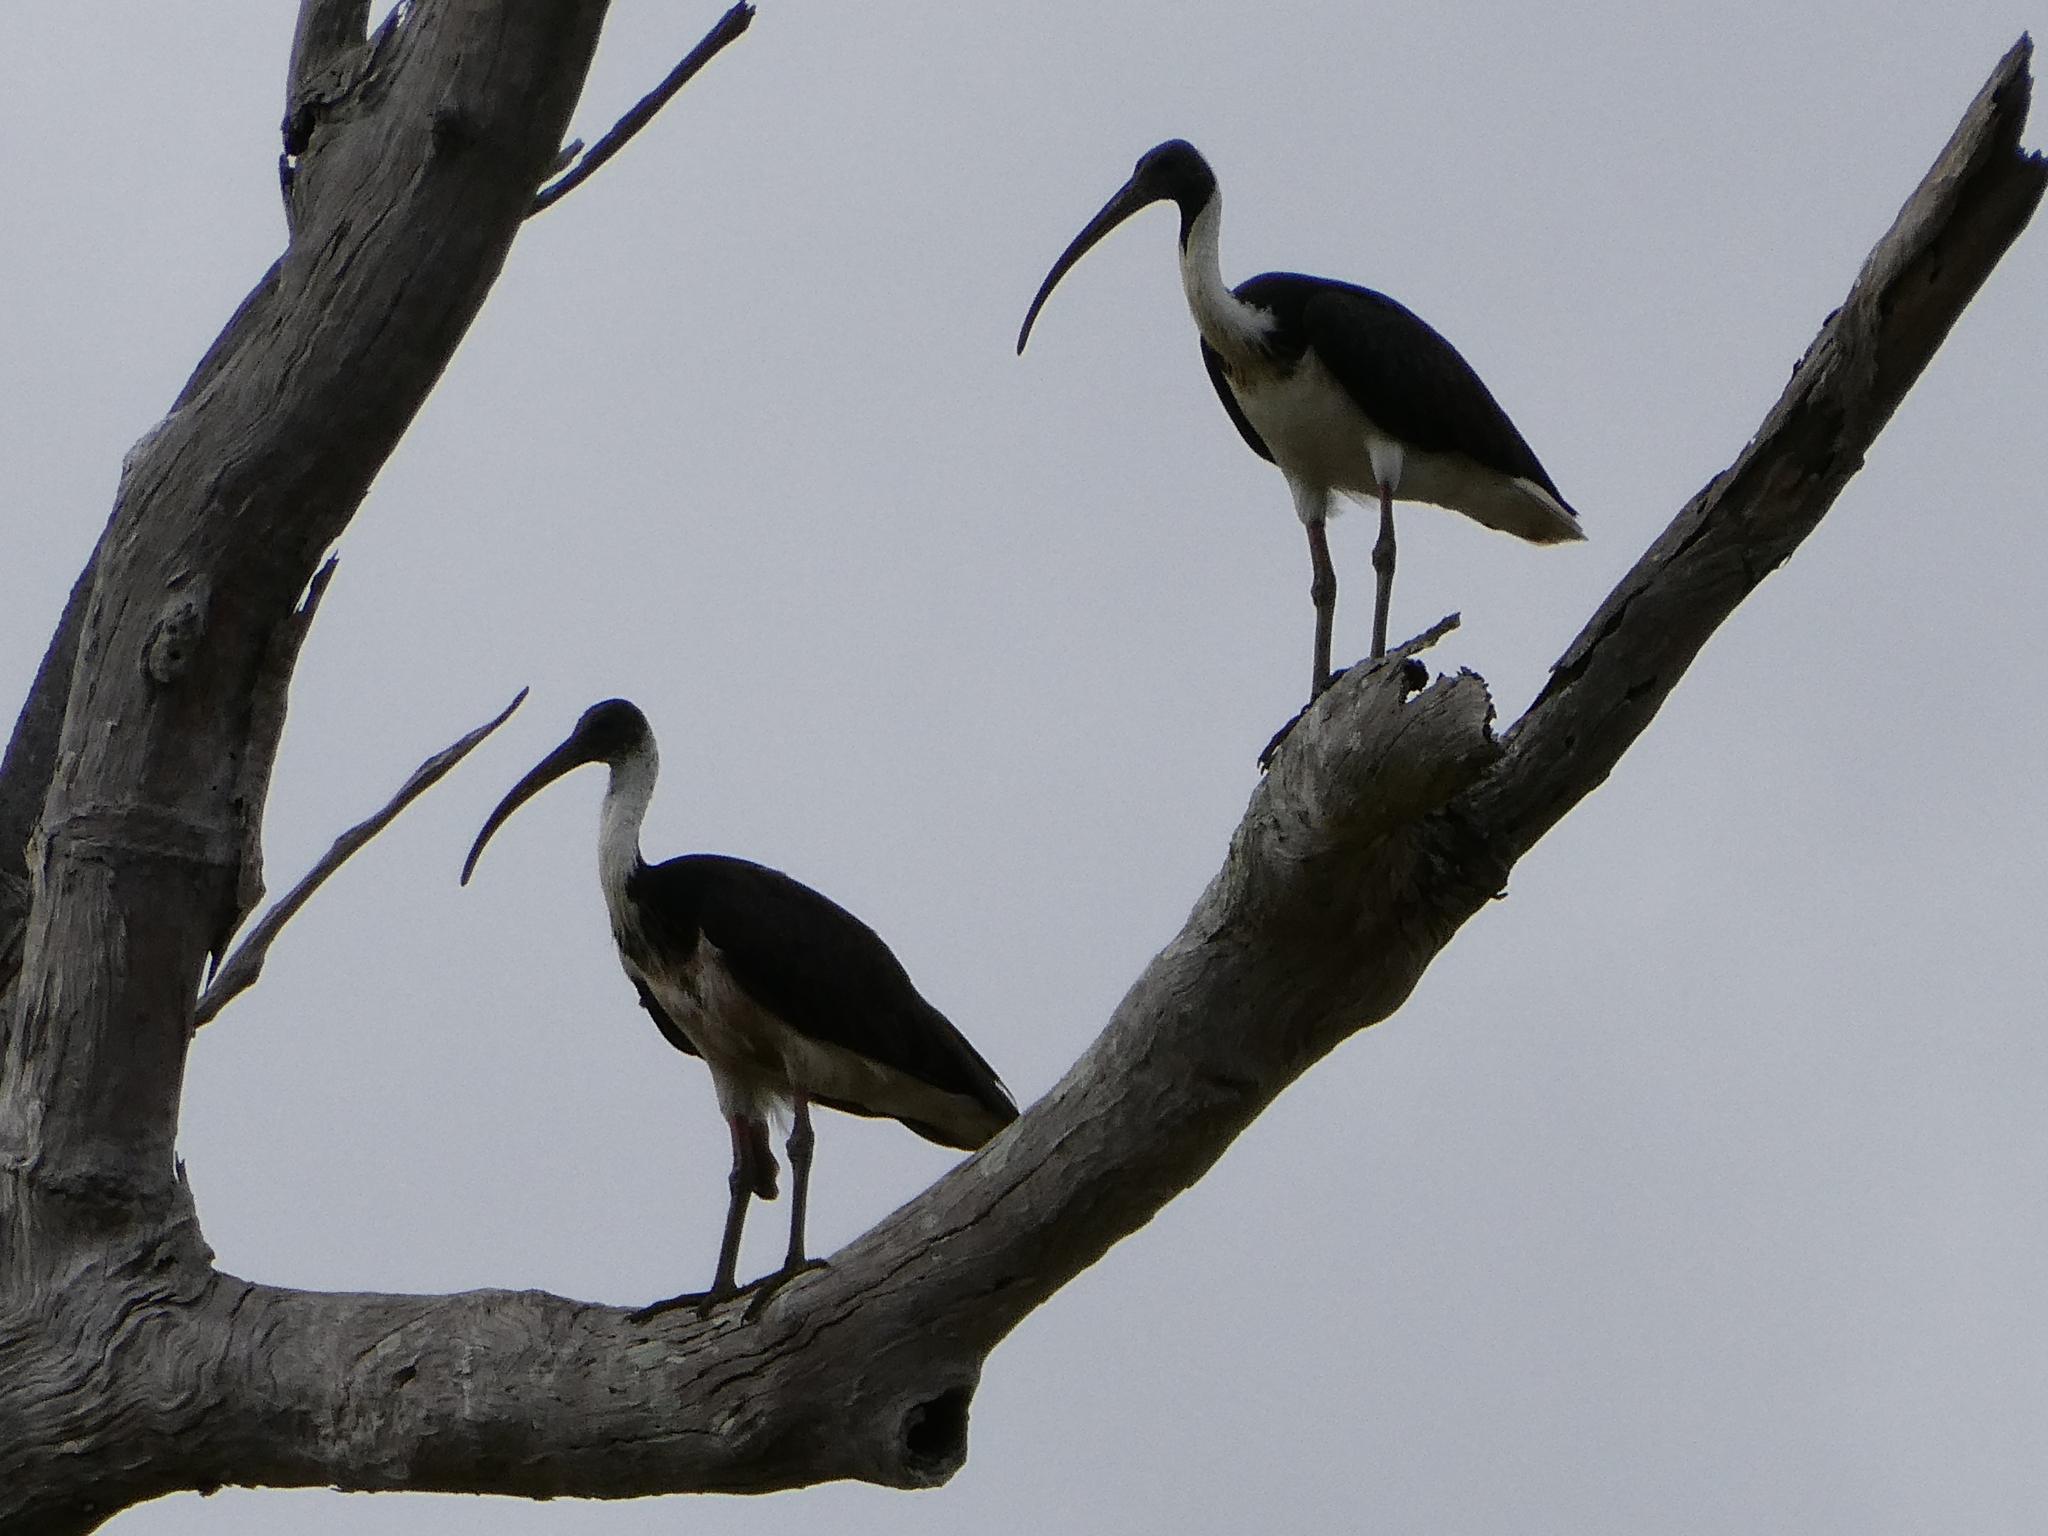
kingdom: Animalia
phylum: Chordata
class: Aves
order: Pelecaniformes
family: Threskiornithidae
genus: Threskiornis
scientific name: Threskiornis spinicollis
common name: Straw-necked ibis
